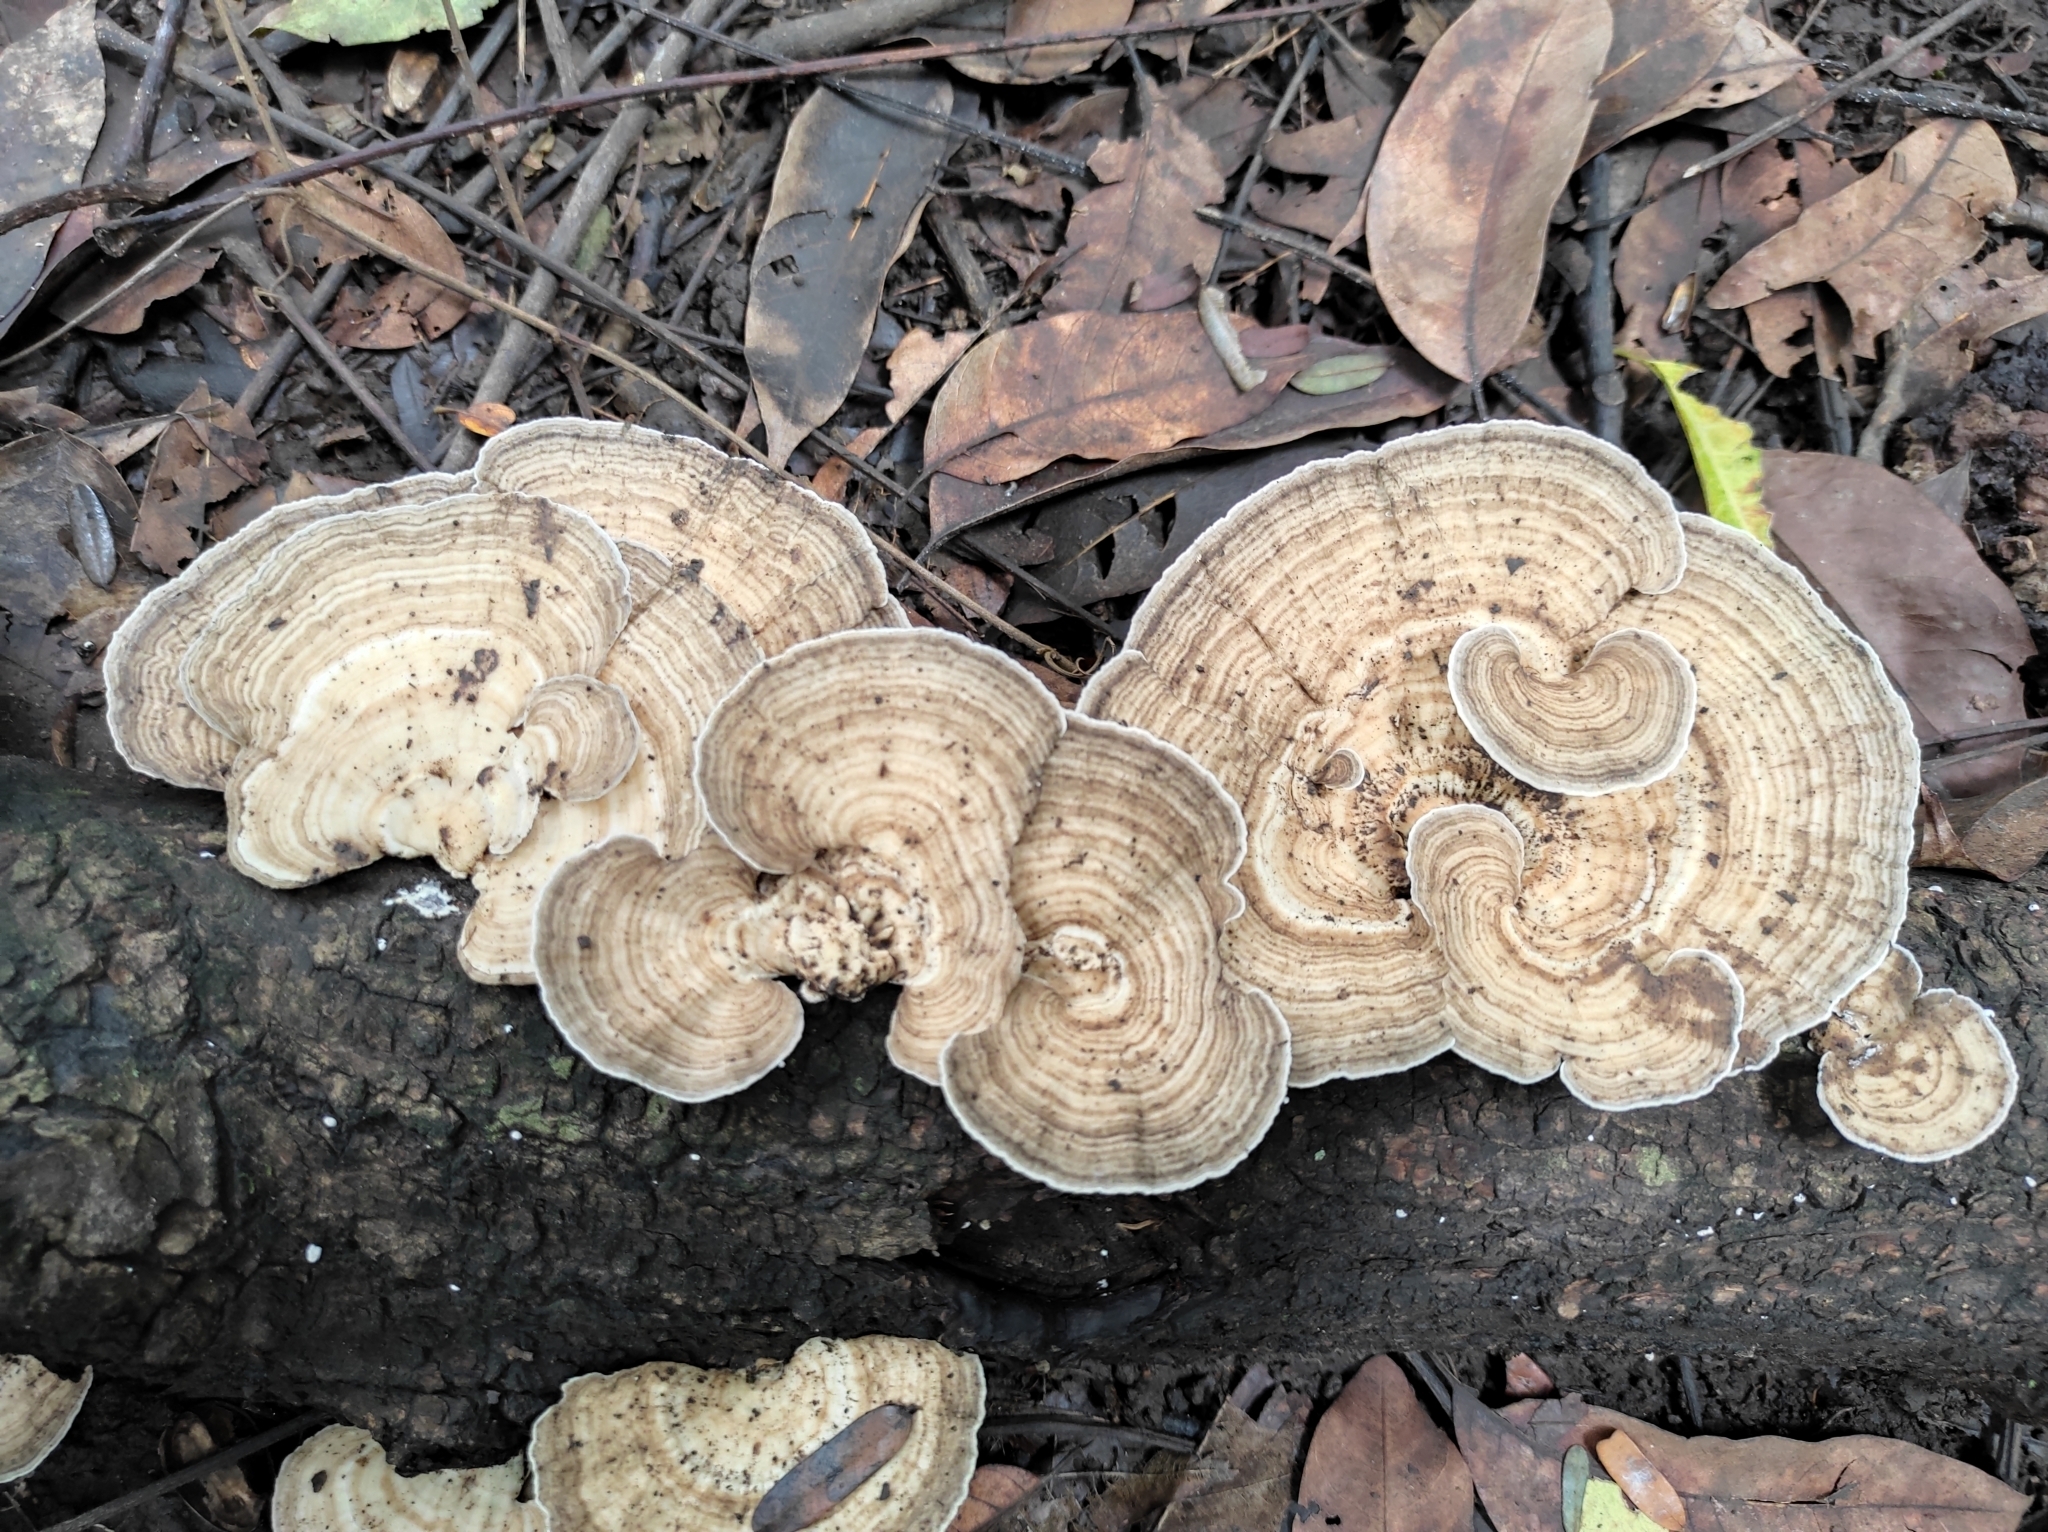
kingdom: Fungi
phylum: Basidiomycota
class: Agaricomycetes
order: Polyporales
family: Polyporaceae
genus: Trametes
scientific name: Trametes elegans
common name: White maze polypore
